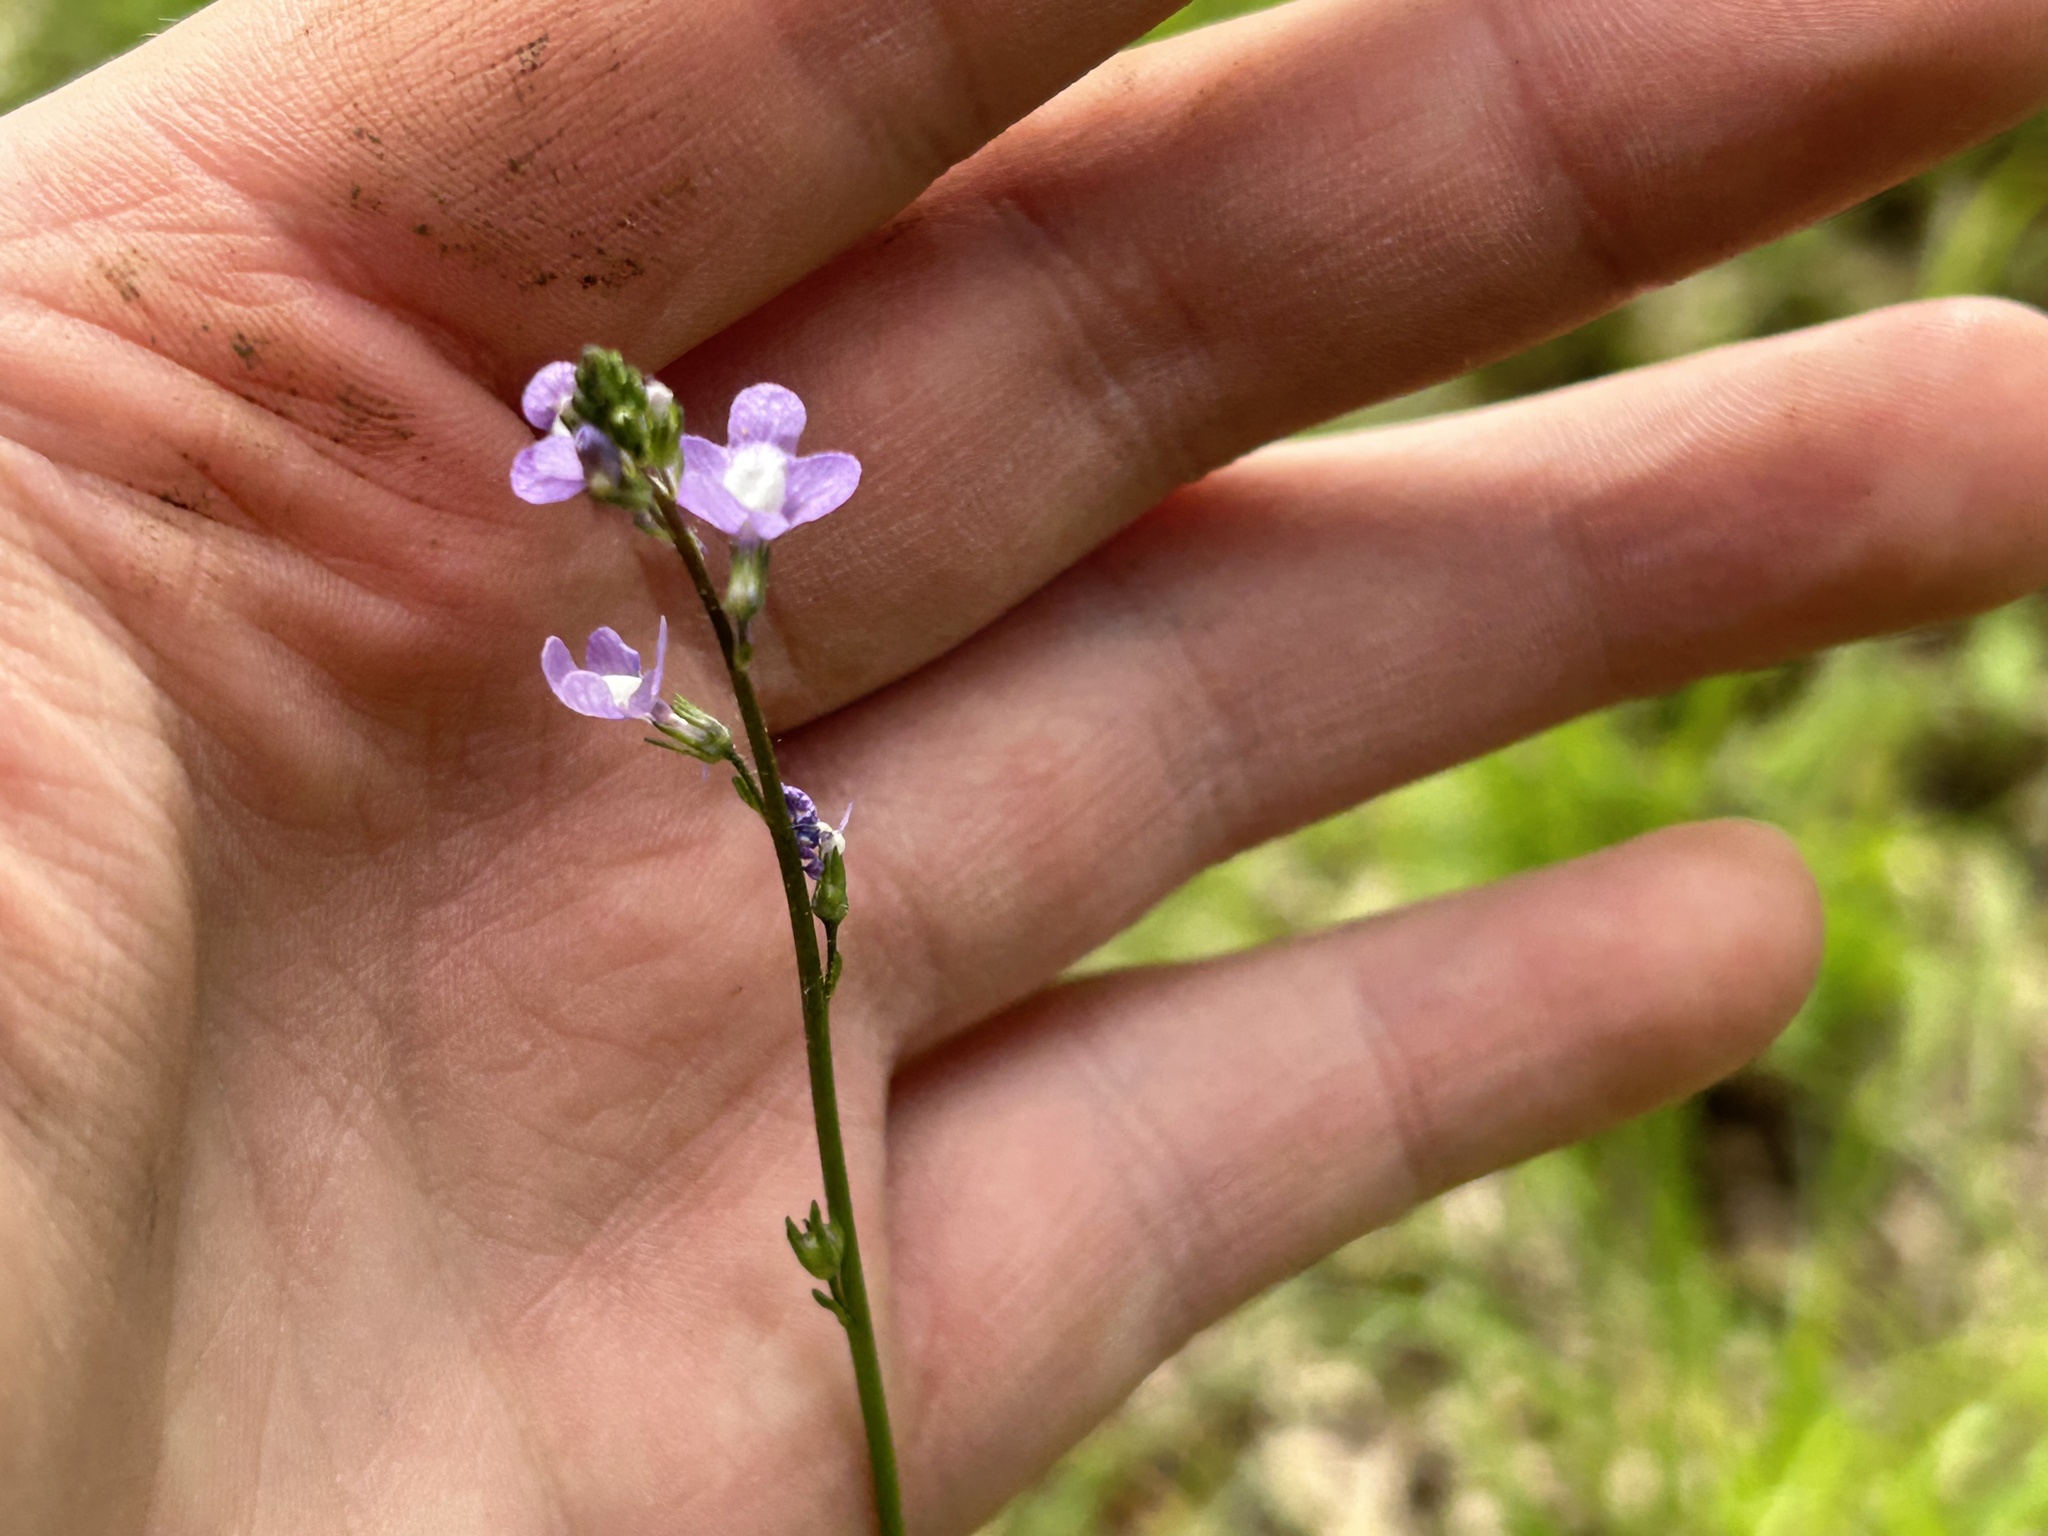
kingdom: Plantae
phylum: Tracheophyta
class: Magnoliopsida
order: Lamiales
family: Plantaginaceae
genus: Nuttallanthus
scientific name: Nuttallanthus canadensis
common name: Blue toadflax
